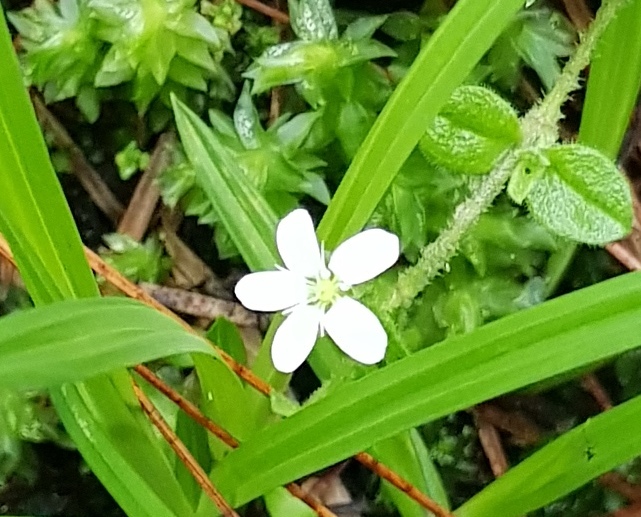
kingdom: Plantae
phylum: Tracheophyta
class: Magnoliopsida
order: Caryophyllales
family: Caryophyllaceae
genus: Arenaria
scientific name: Arenaria lanuginosa
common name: Spread sandwort
